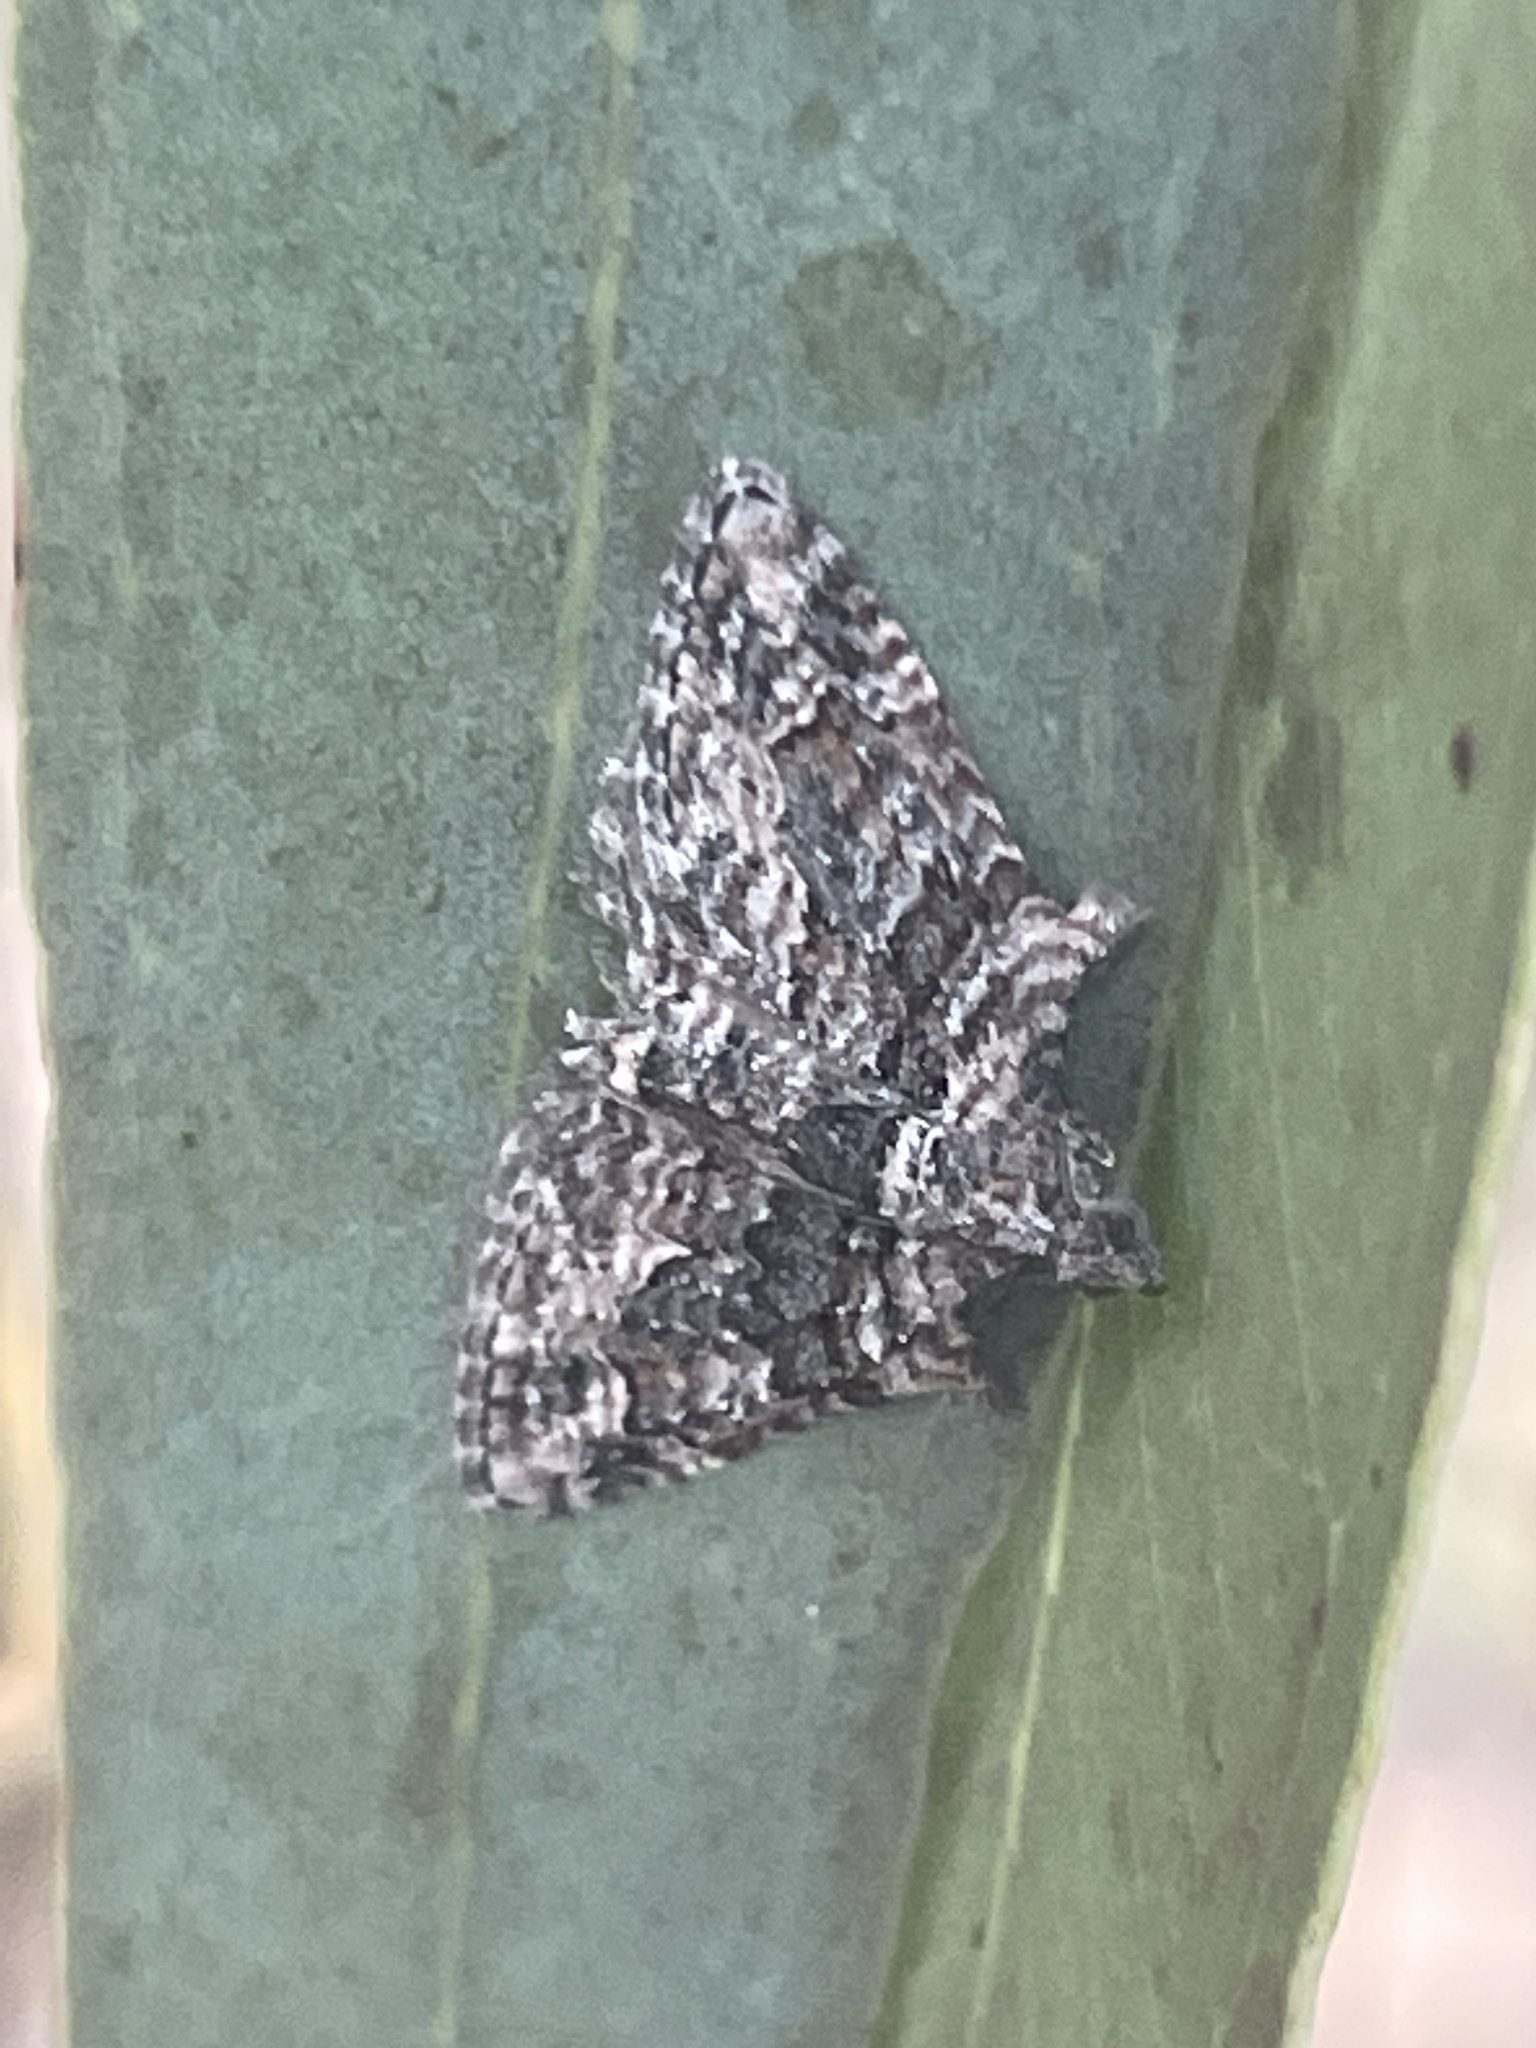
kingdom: Animalia
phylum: Arthropoda
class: Insecta
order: Lepidoptera
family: Geometridae
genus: Phrissogonus
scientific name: Phrissogonus laticostata
